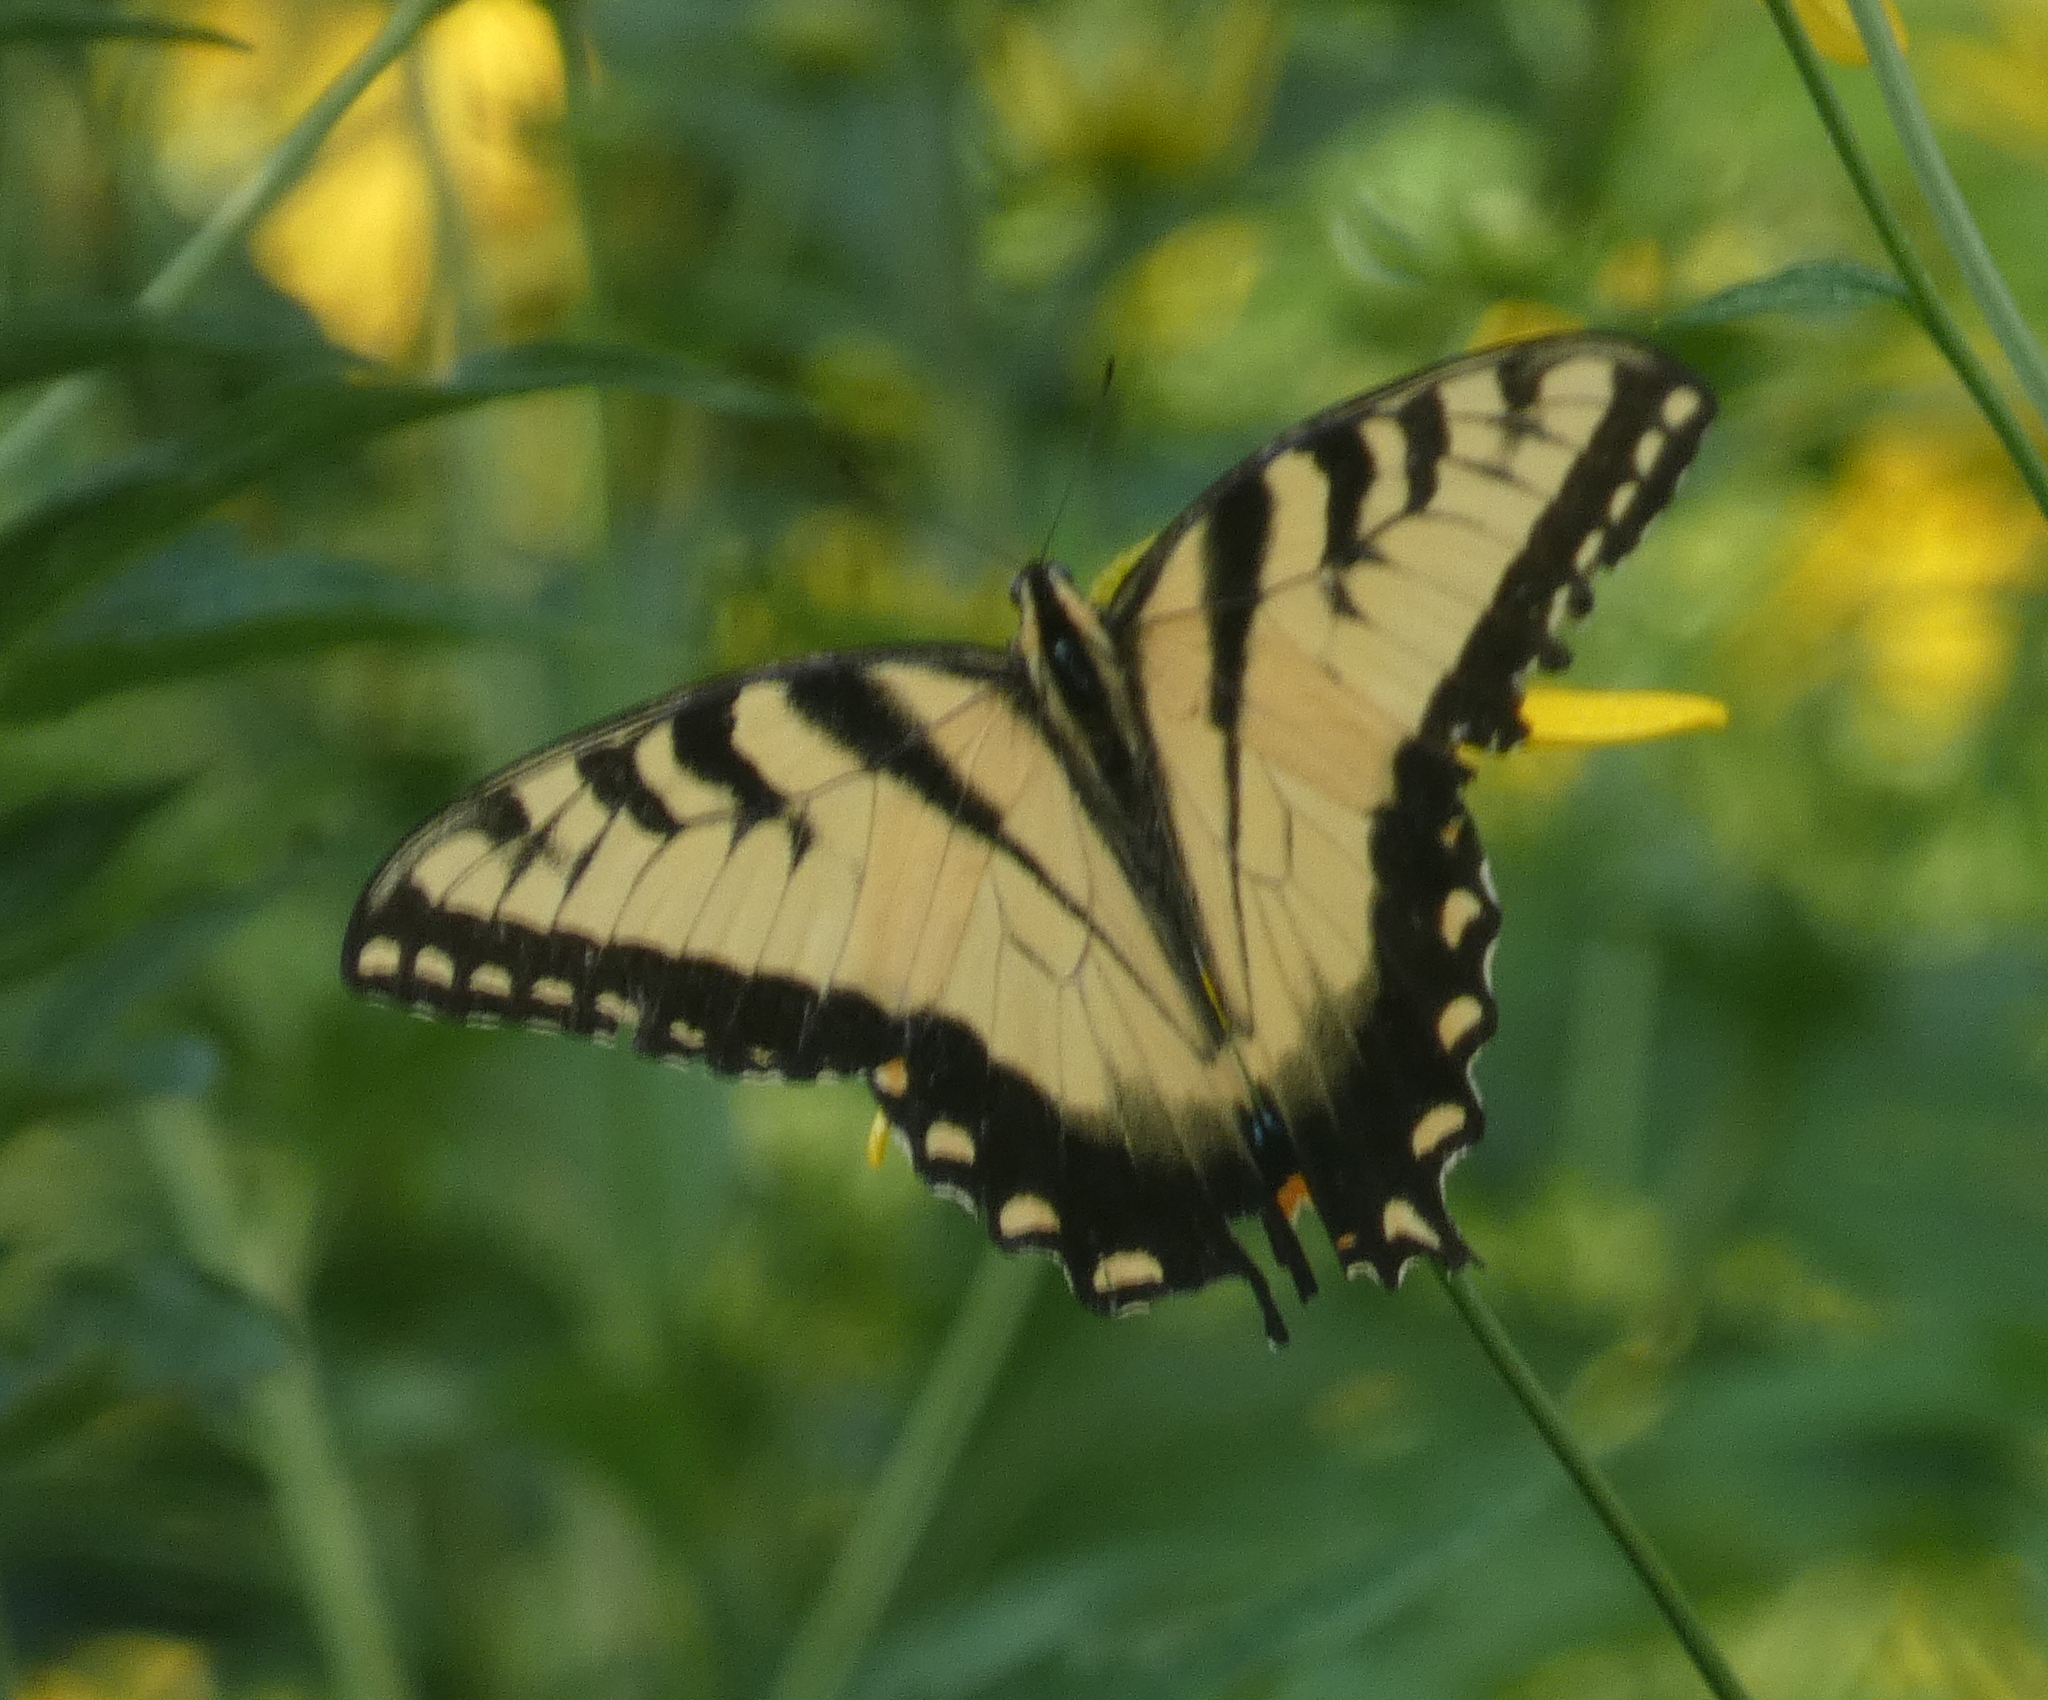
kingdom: Animalia
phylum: Arthropoda
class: Insecta
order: Lepidoptera
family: Papilionidae
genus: Papilio
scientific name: Papilio glaucus
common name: Tiger swallowtail
